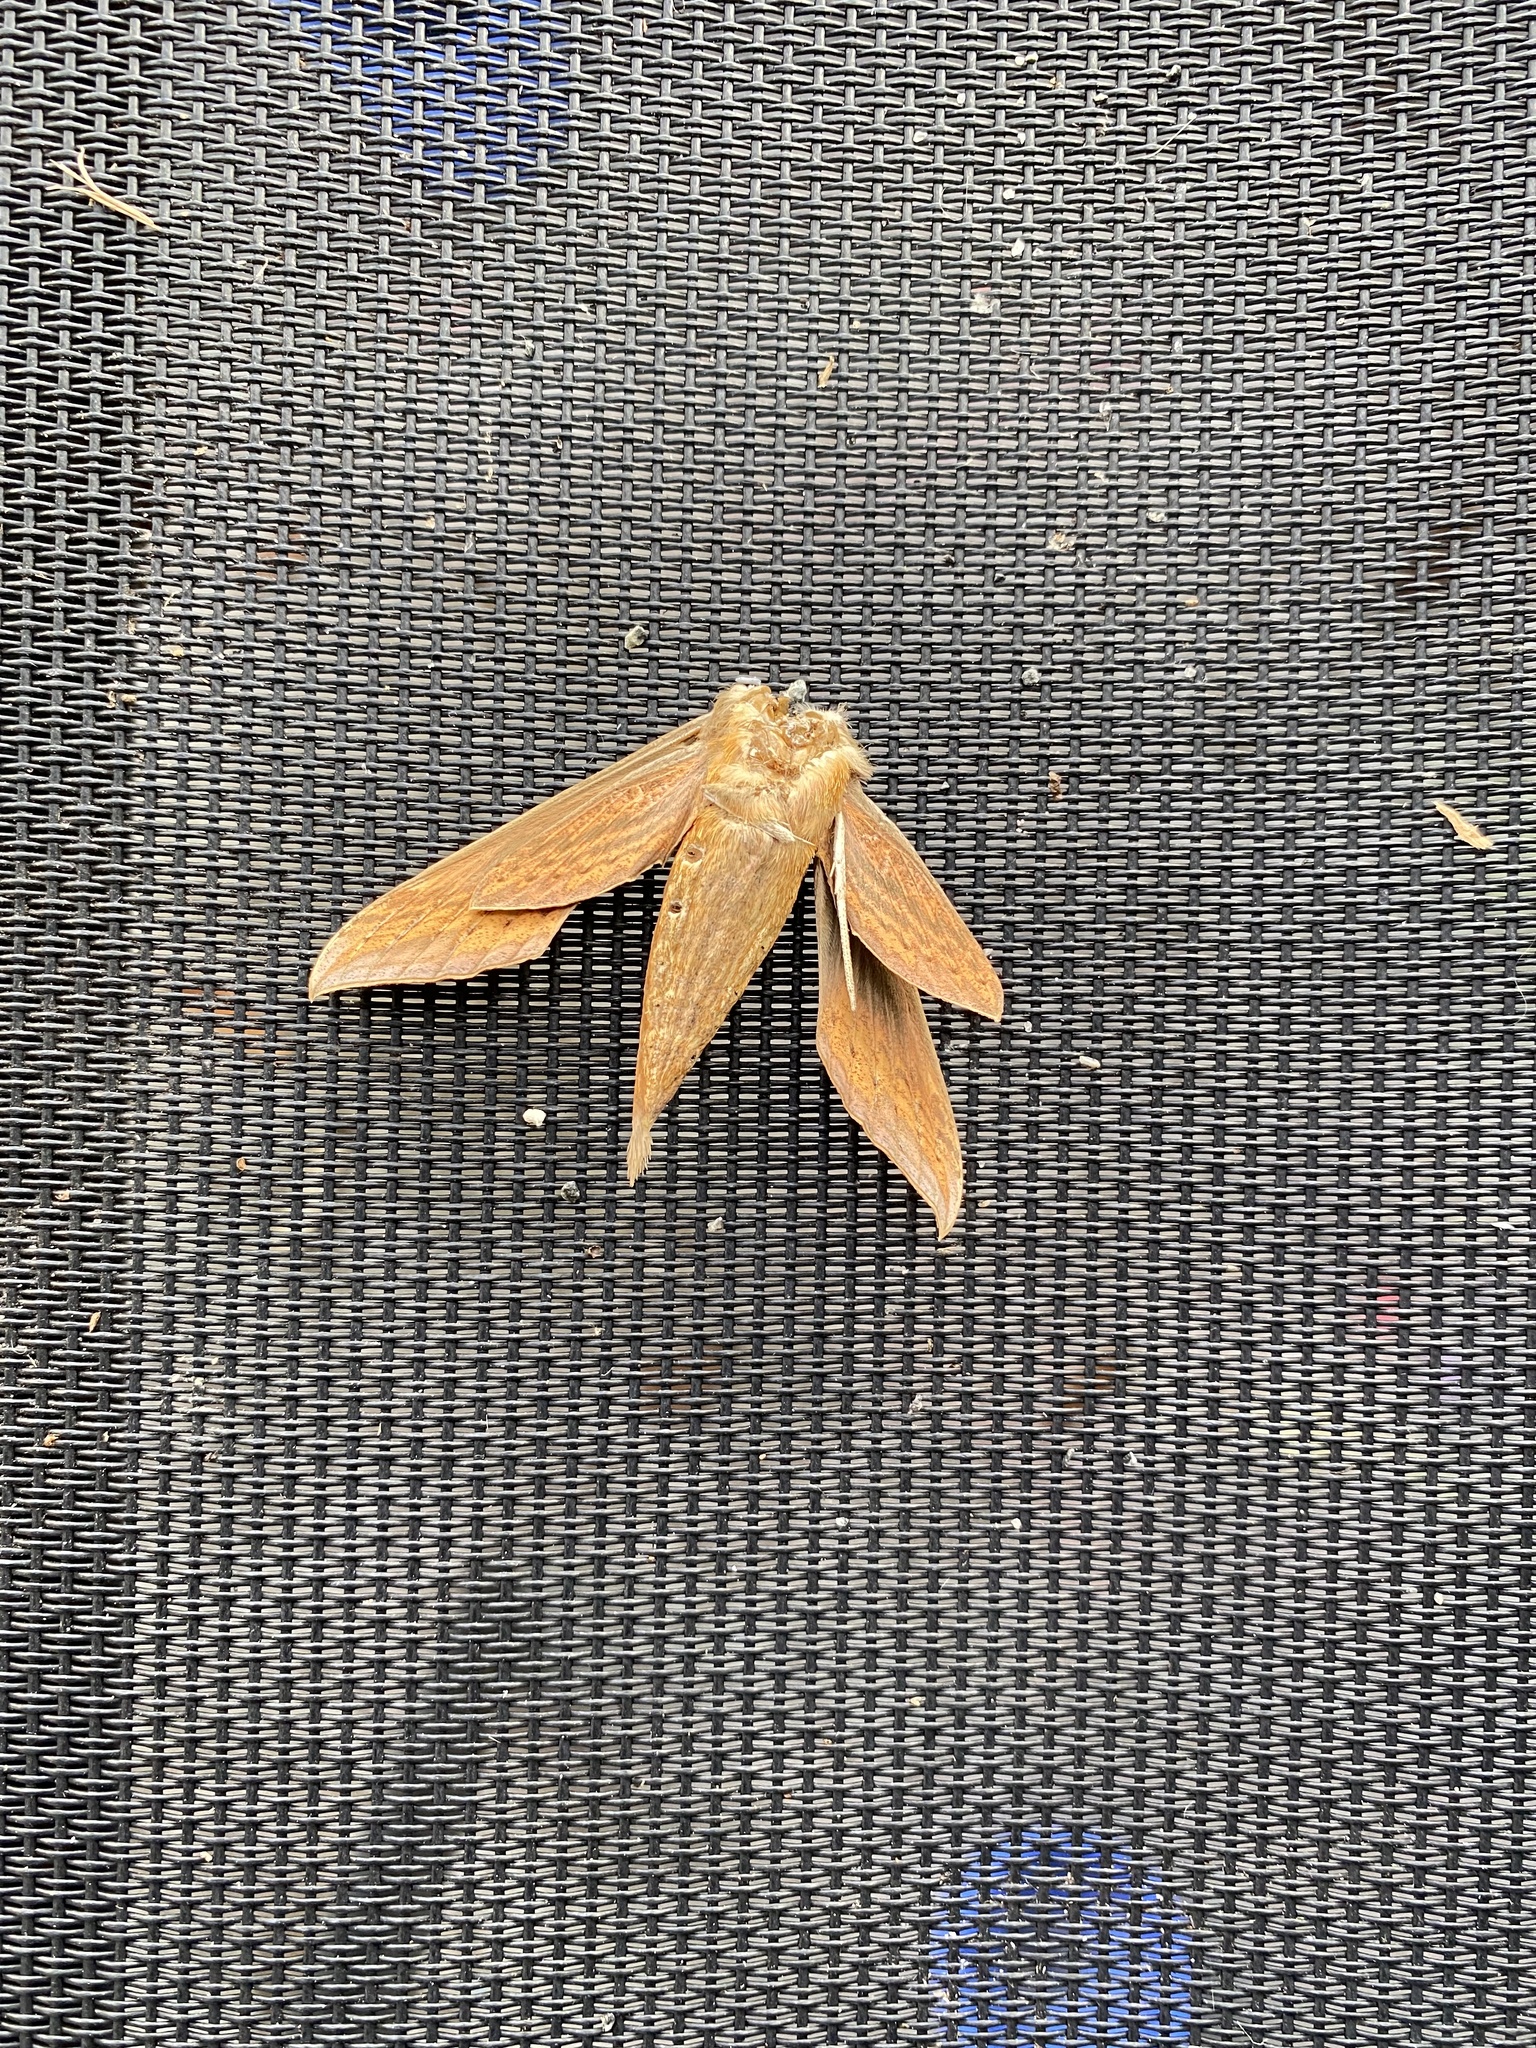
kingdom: Animalia
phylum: Arthropoda
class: Insecta
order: Lepidoptera
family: Sphingidae
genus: Xylophanes
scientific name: Xylophanes tersa
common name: Tersa sphinx
